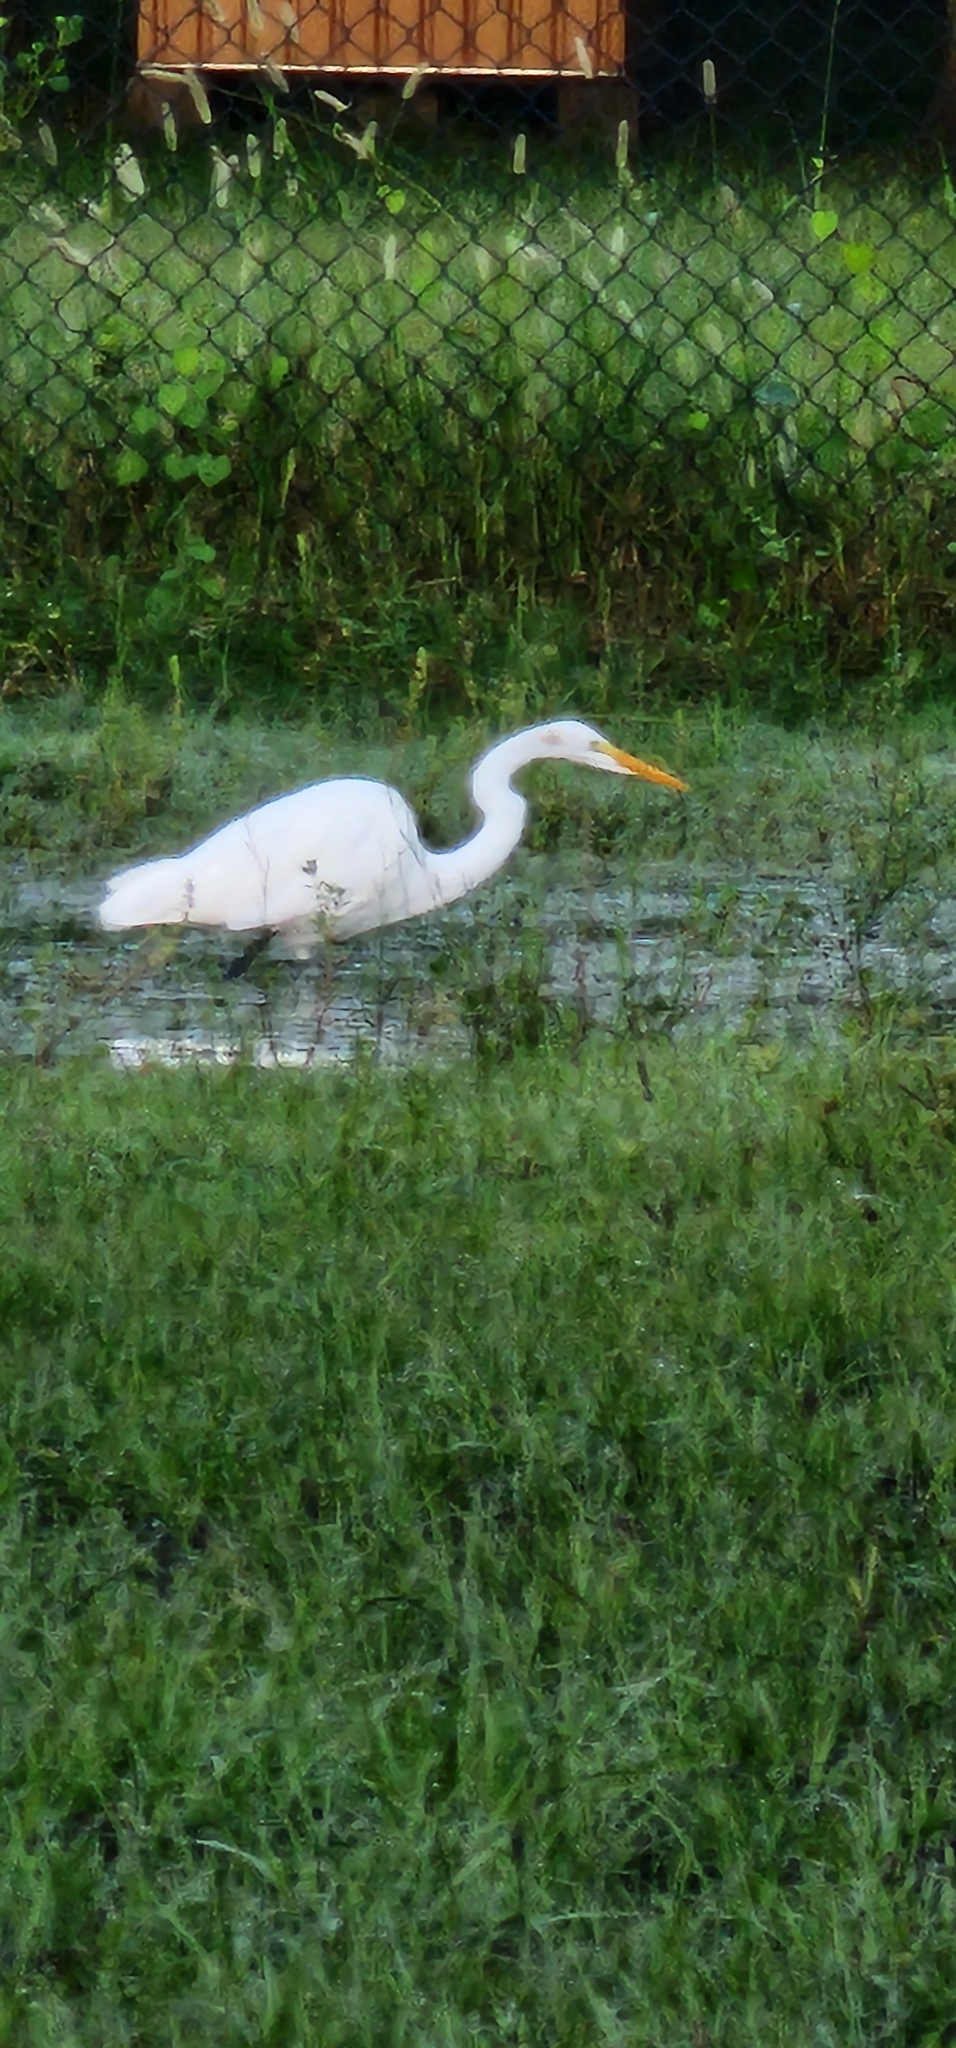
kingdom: Animalia
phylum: Chordata
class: Aves
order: Pelecaniformes
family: Ardeidae
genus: Ardea
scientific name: Ardea alba
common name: Great egret
